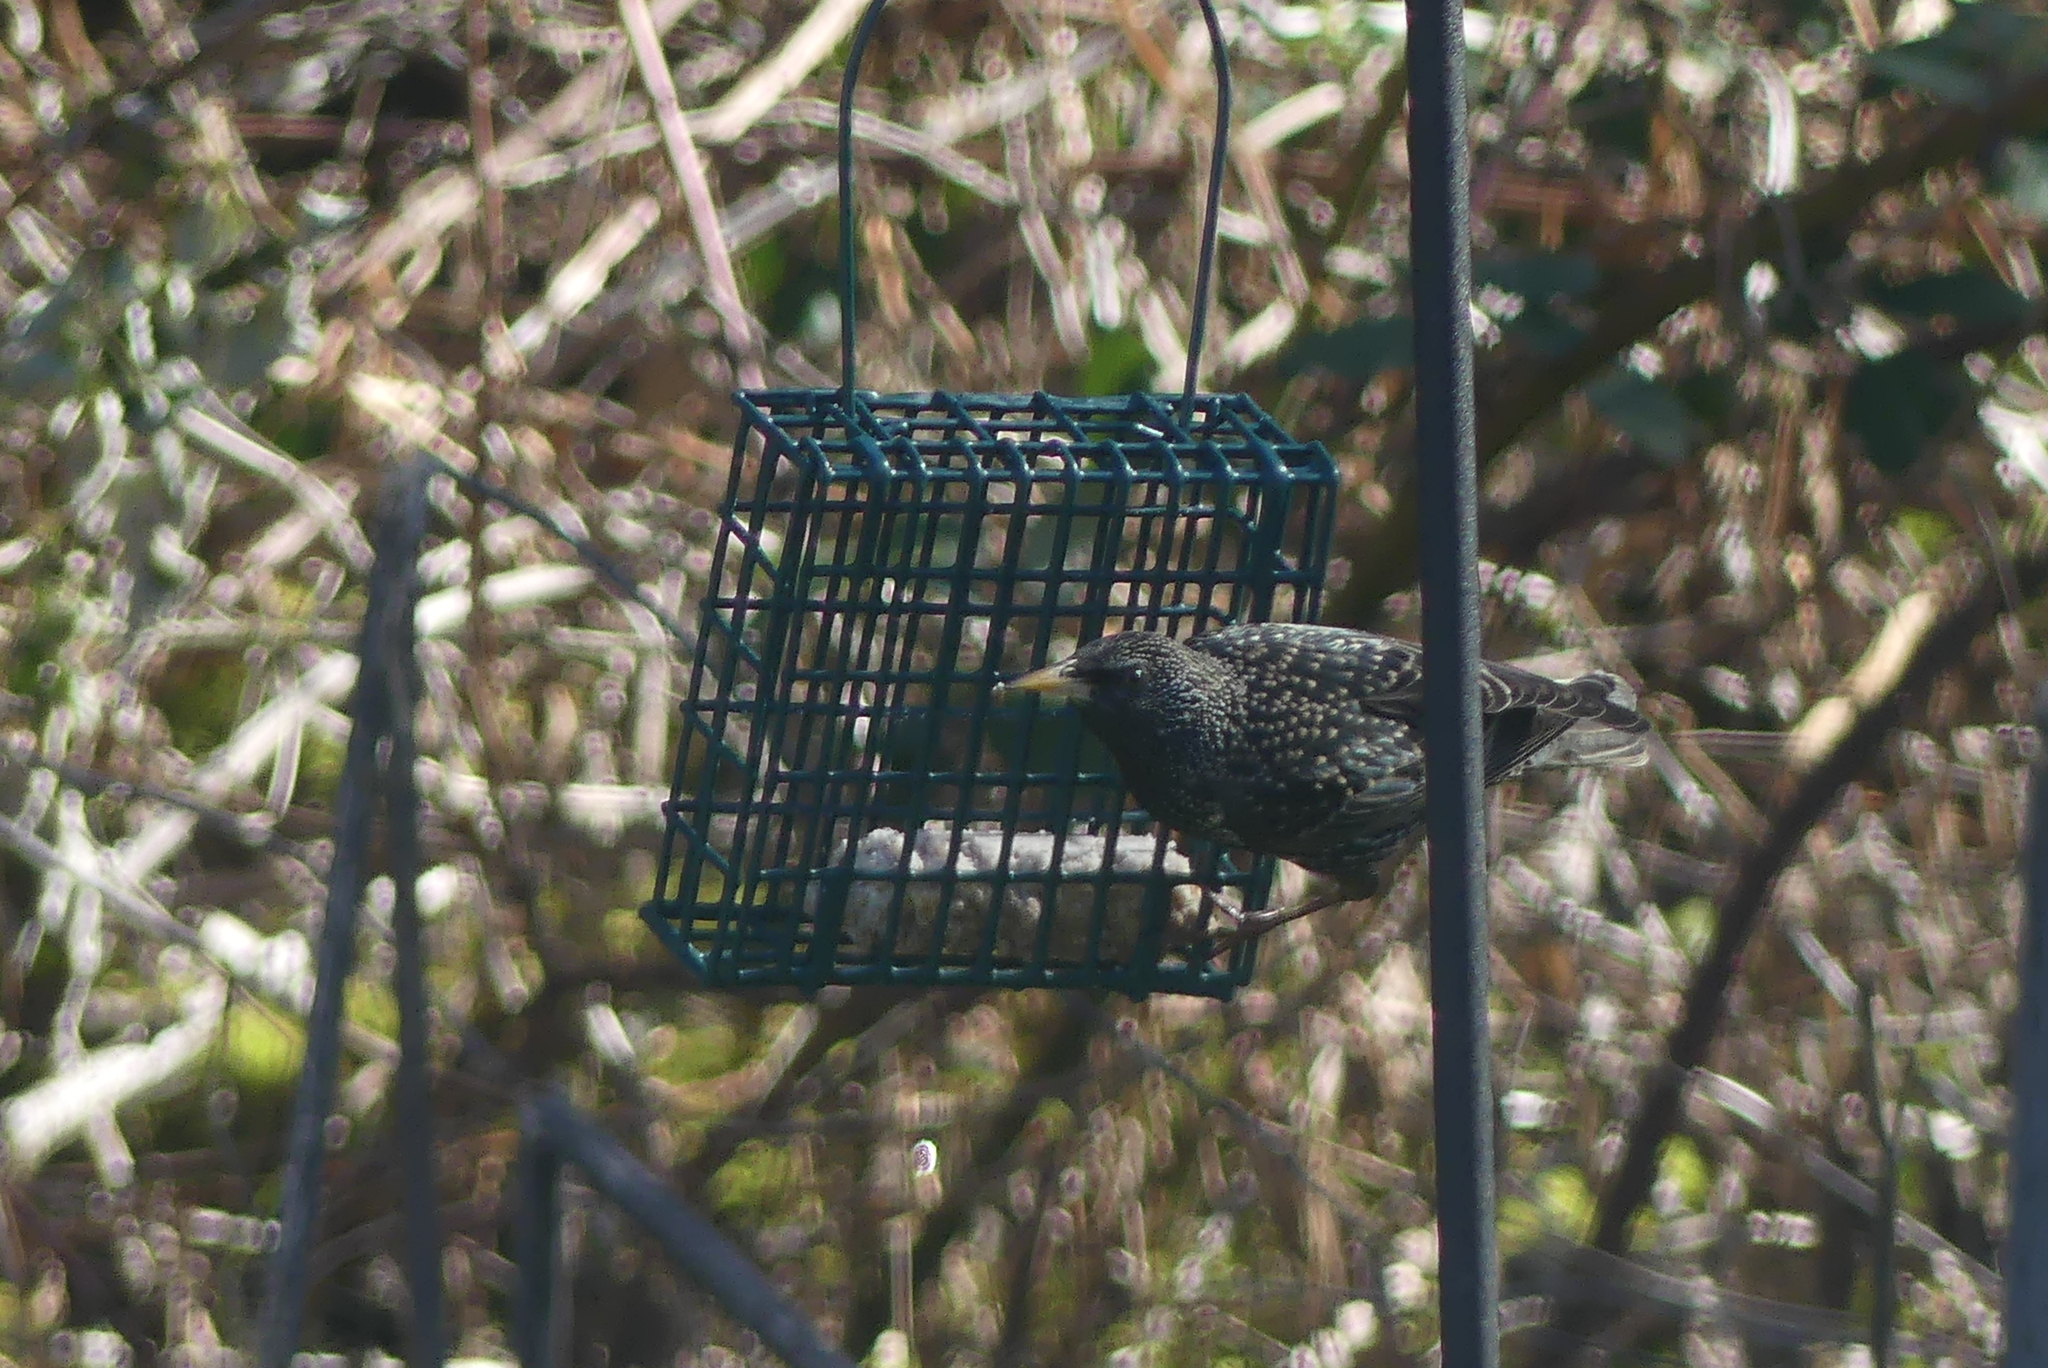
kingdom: Animalia
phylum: Chordata
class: Aves
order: Passeriformes
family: Sturnidae
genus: Sturnus
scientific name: Sturnus vulgaris
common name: Common starling
